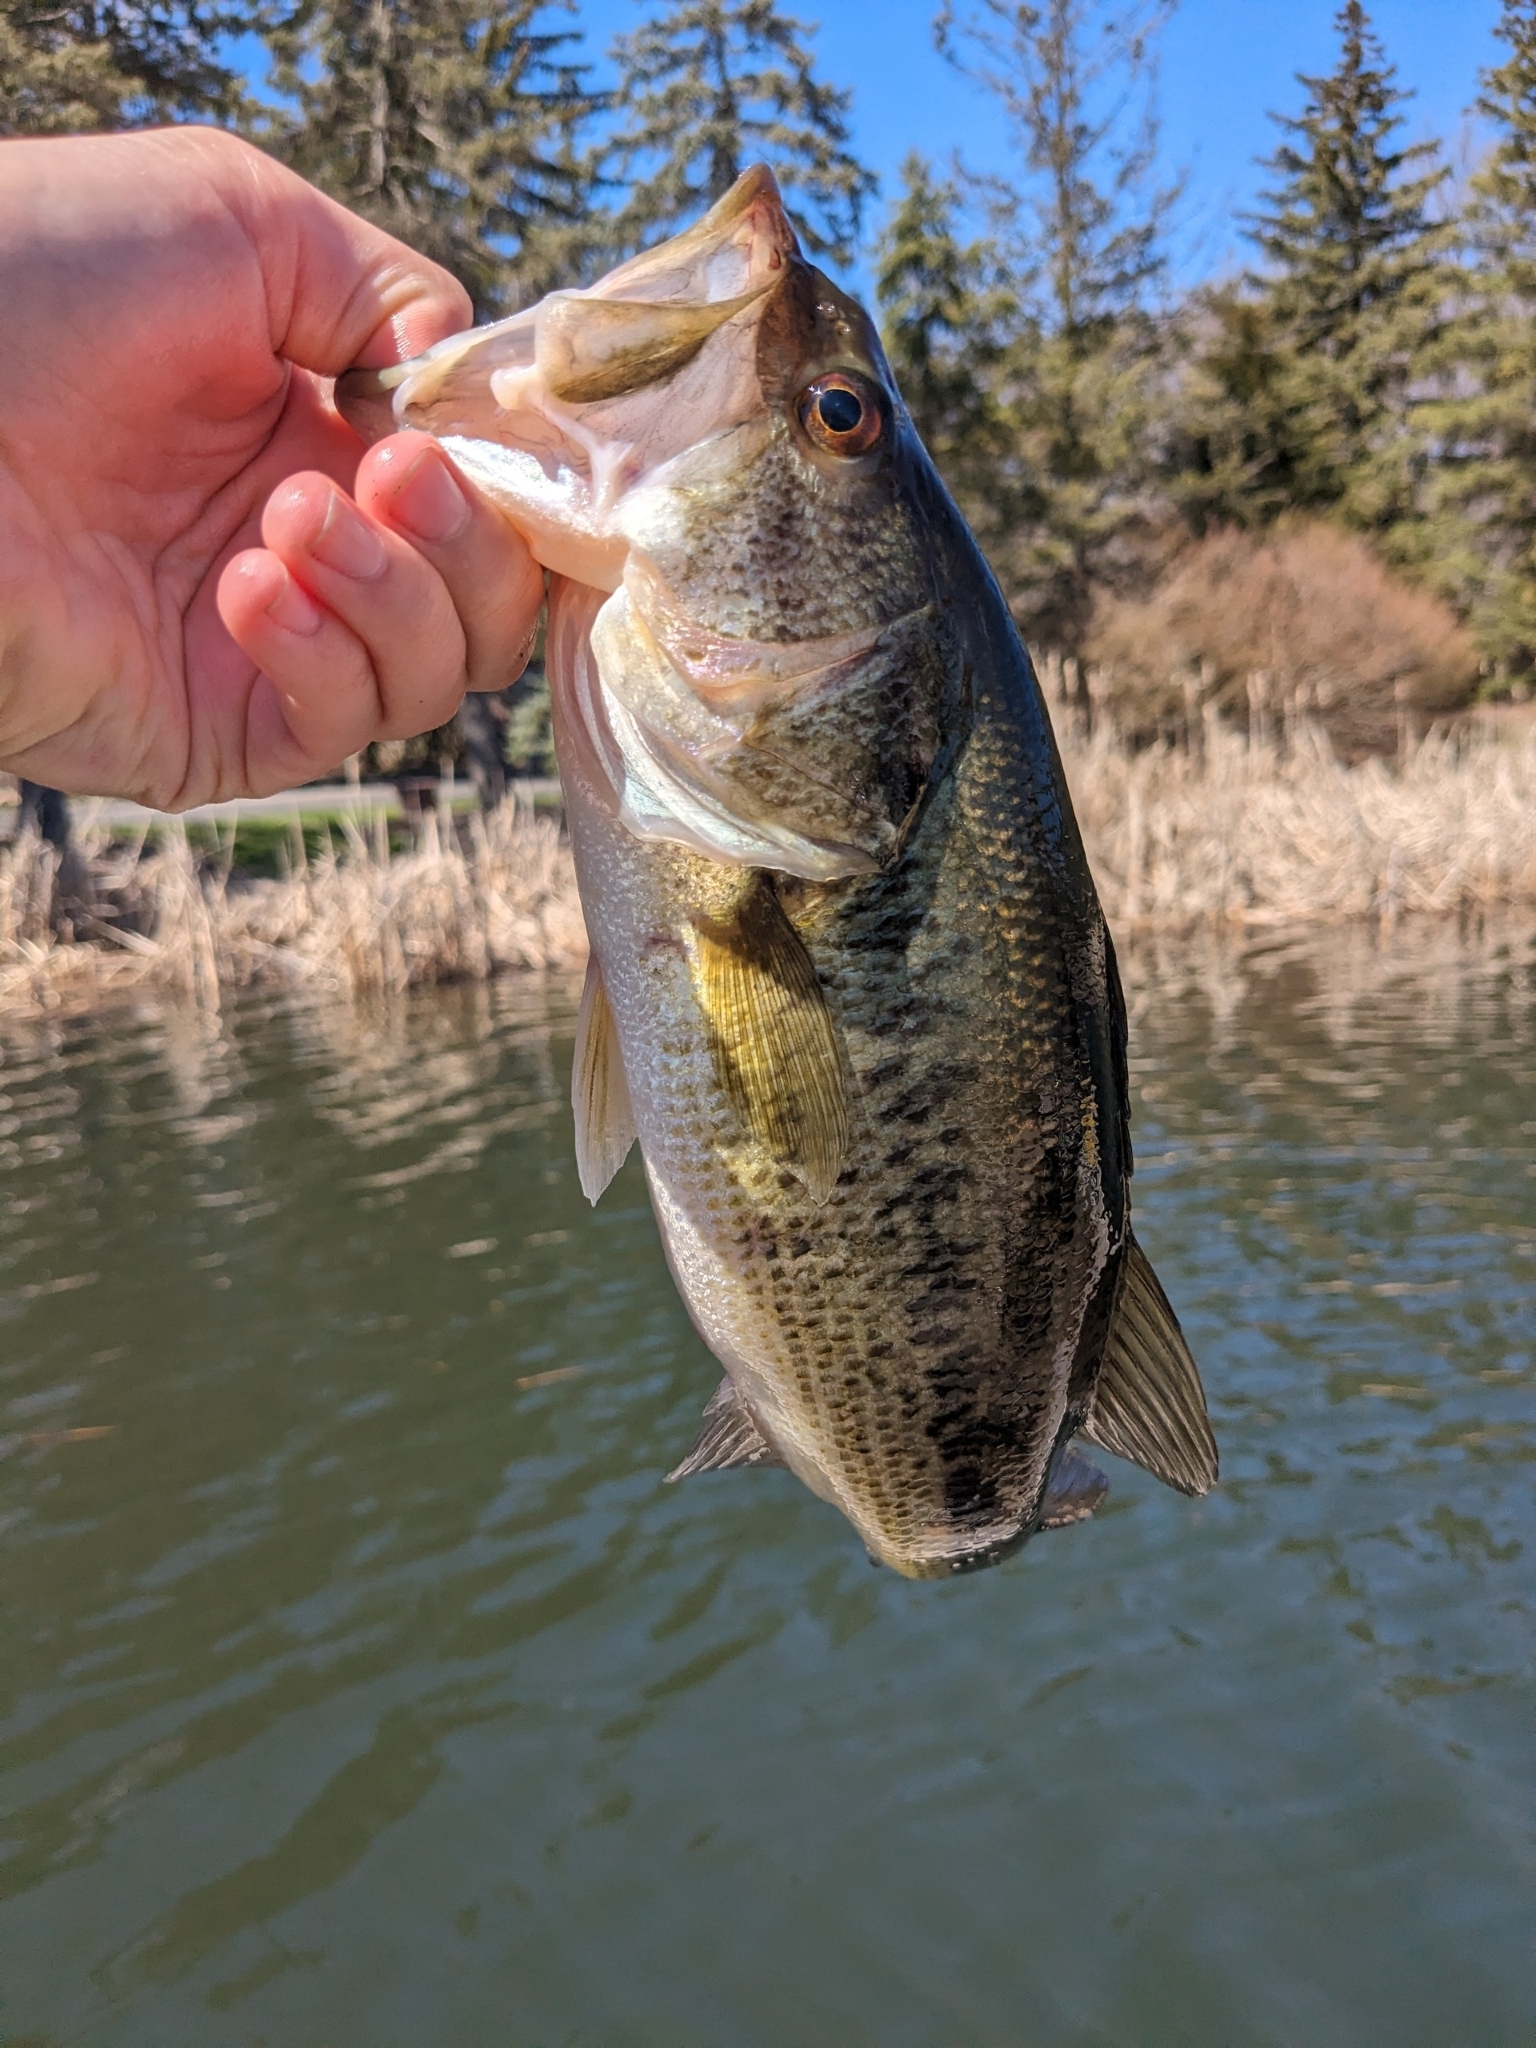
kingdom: Animalia
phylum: Chordata
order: Perciformes
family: Centrarchidae
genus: Micropterus
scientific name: Micropterus
